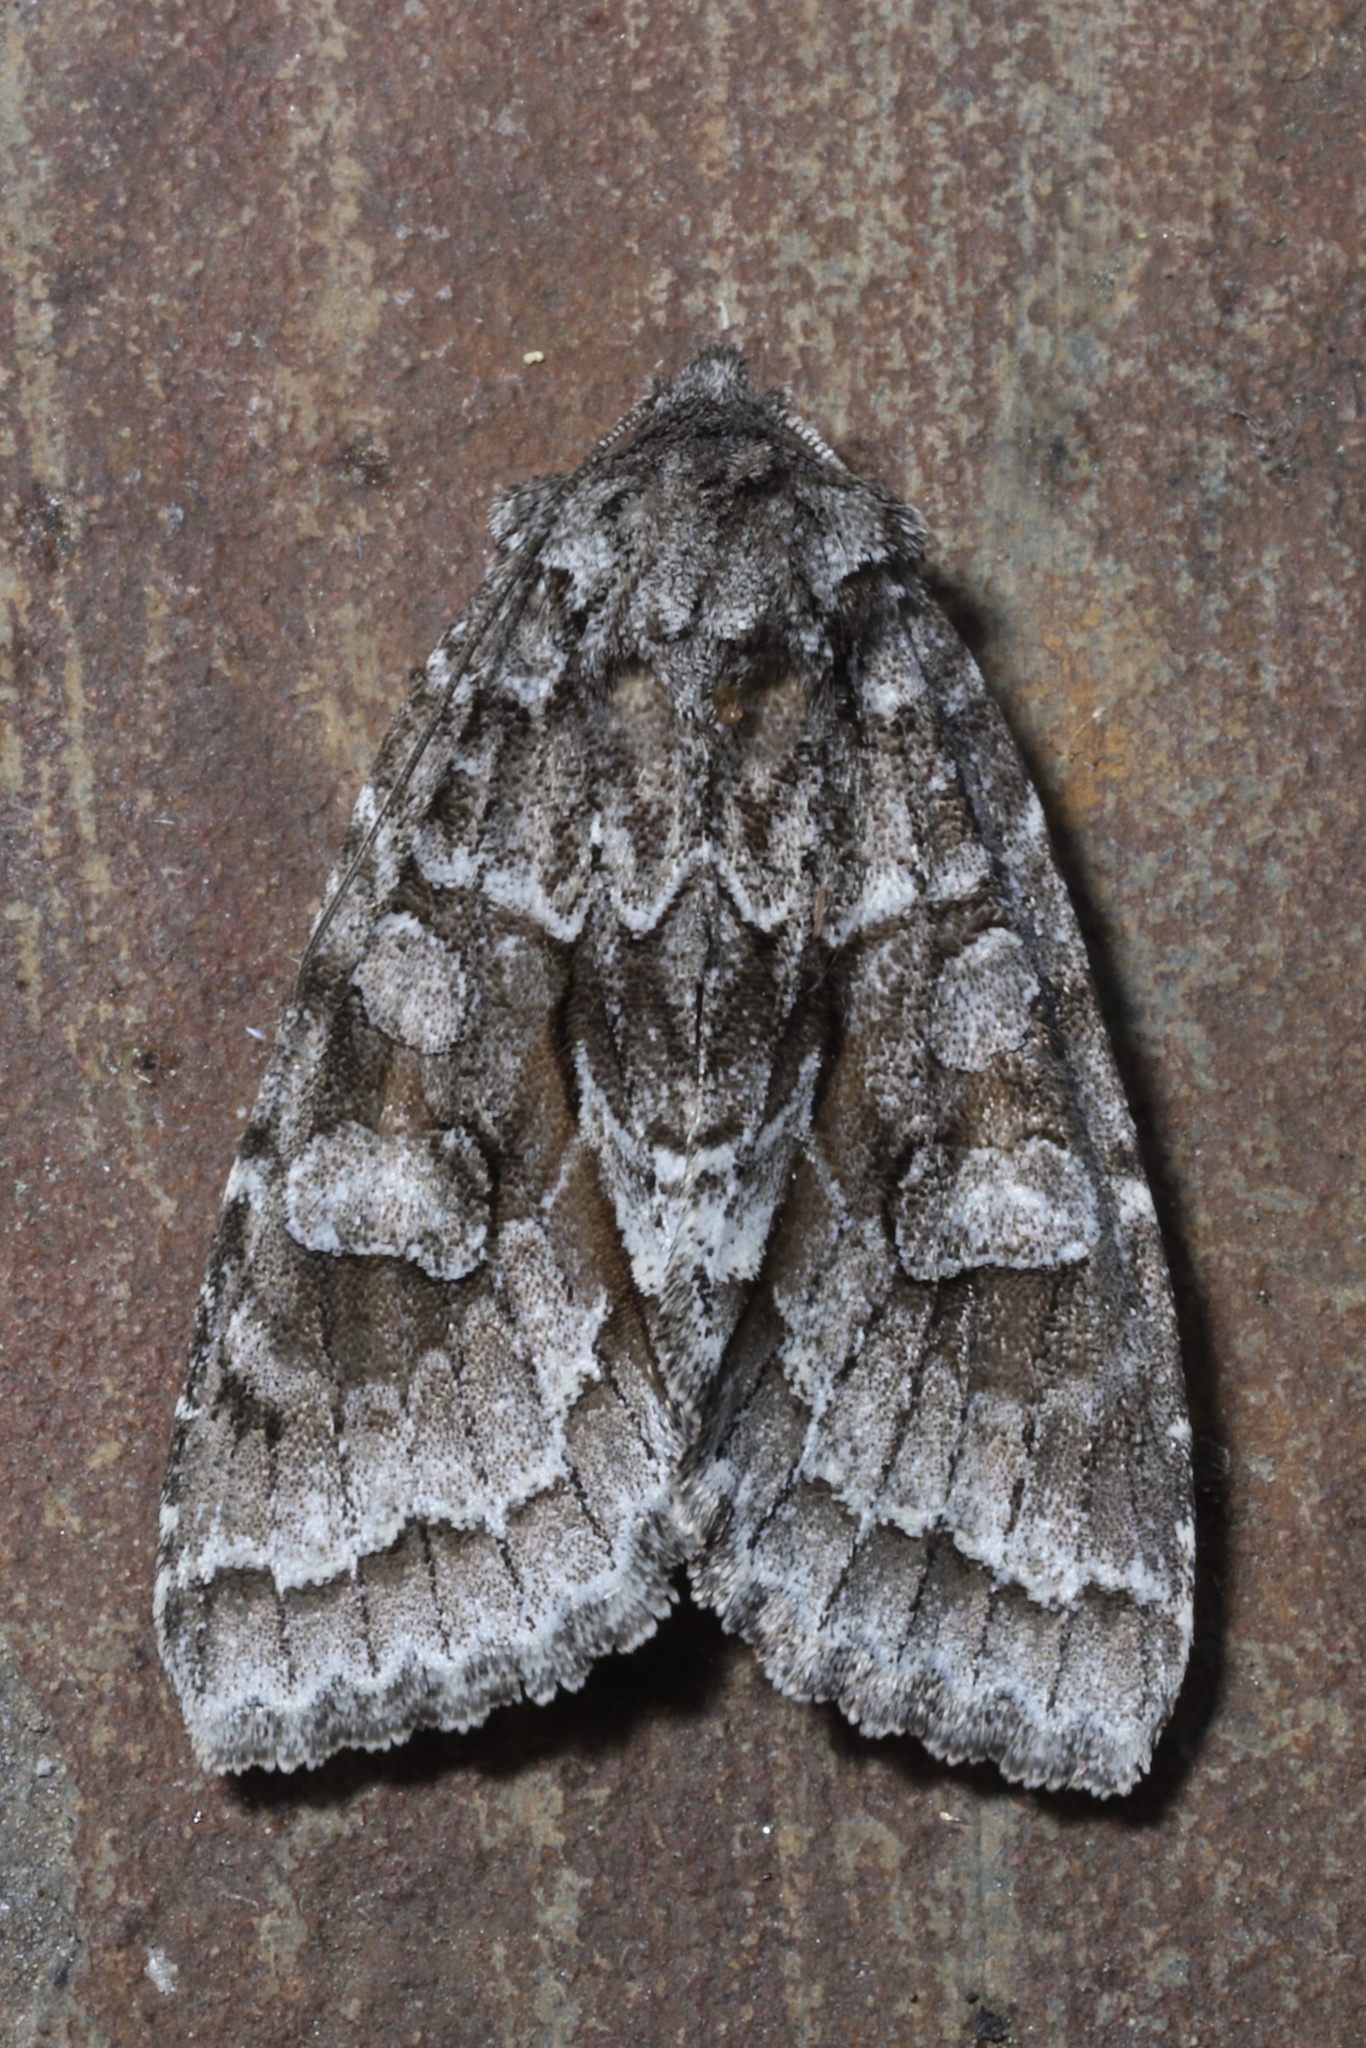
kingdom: Animalia
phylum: Arthropoda
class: Insecta
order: Lepidoptera
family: Noctuidae
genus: Xylotype
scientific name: Xylotype arcadia
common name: Acadian sallow
